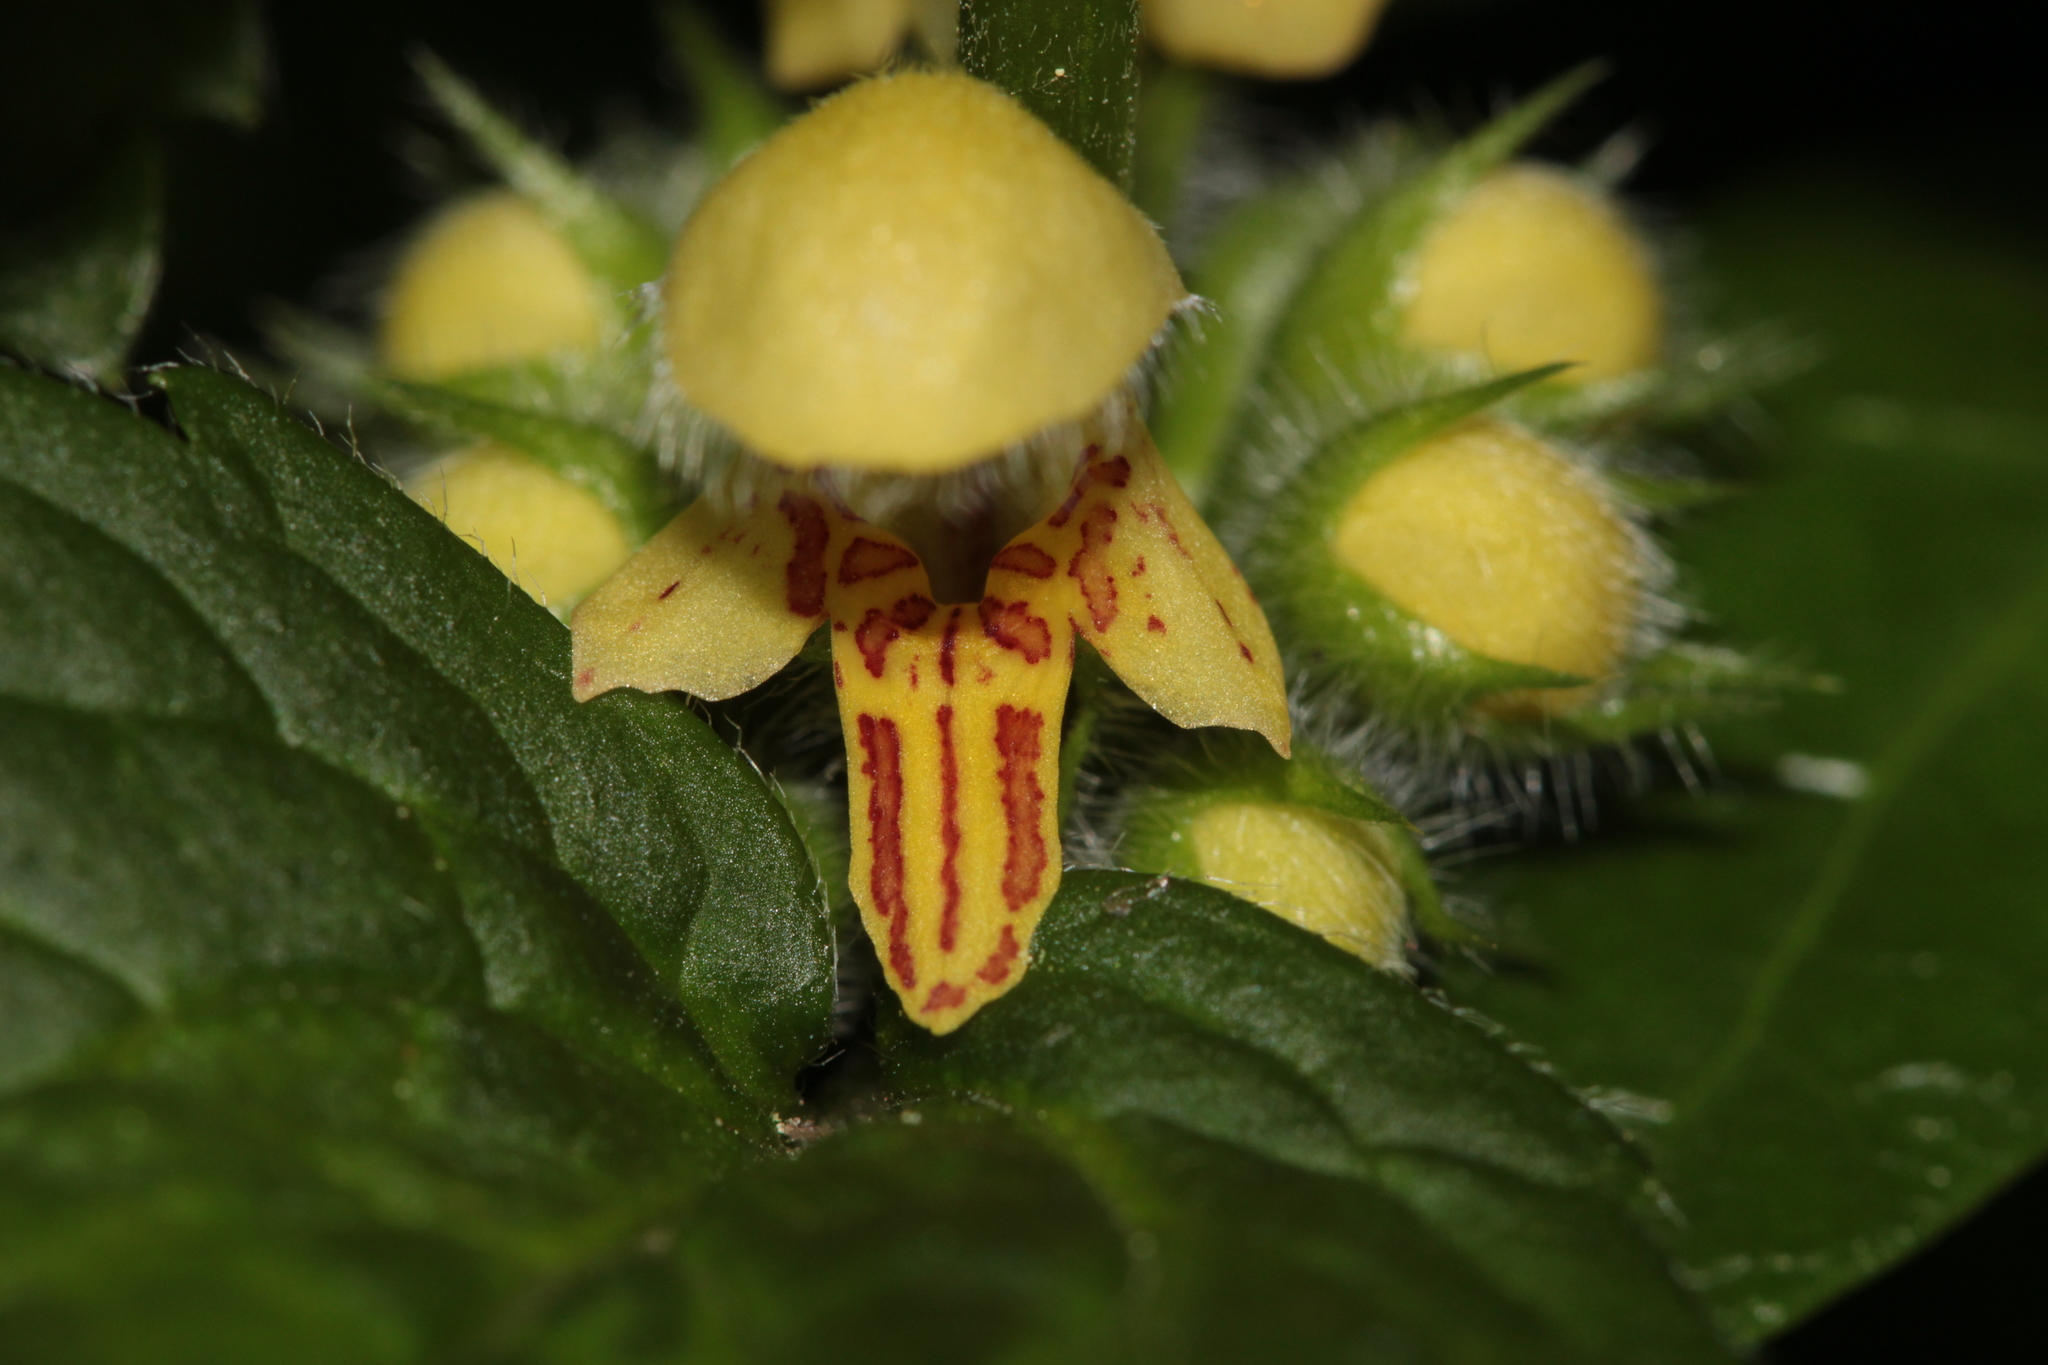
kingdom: Plantae
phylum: Tracheophyta
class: Magnoliopsida
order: Lamiales
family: Lamiaceae
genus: Lamium
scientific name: Lamium galeobdolon
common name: Yellow archangel
